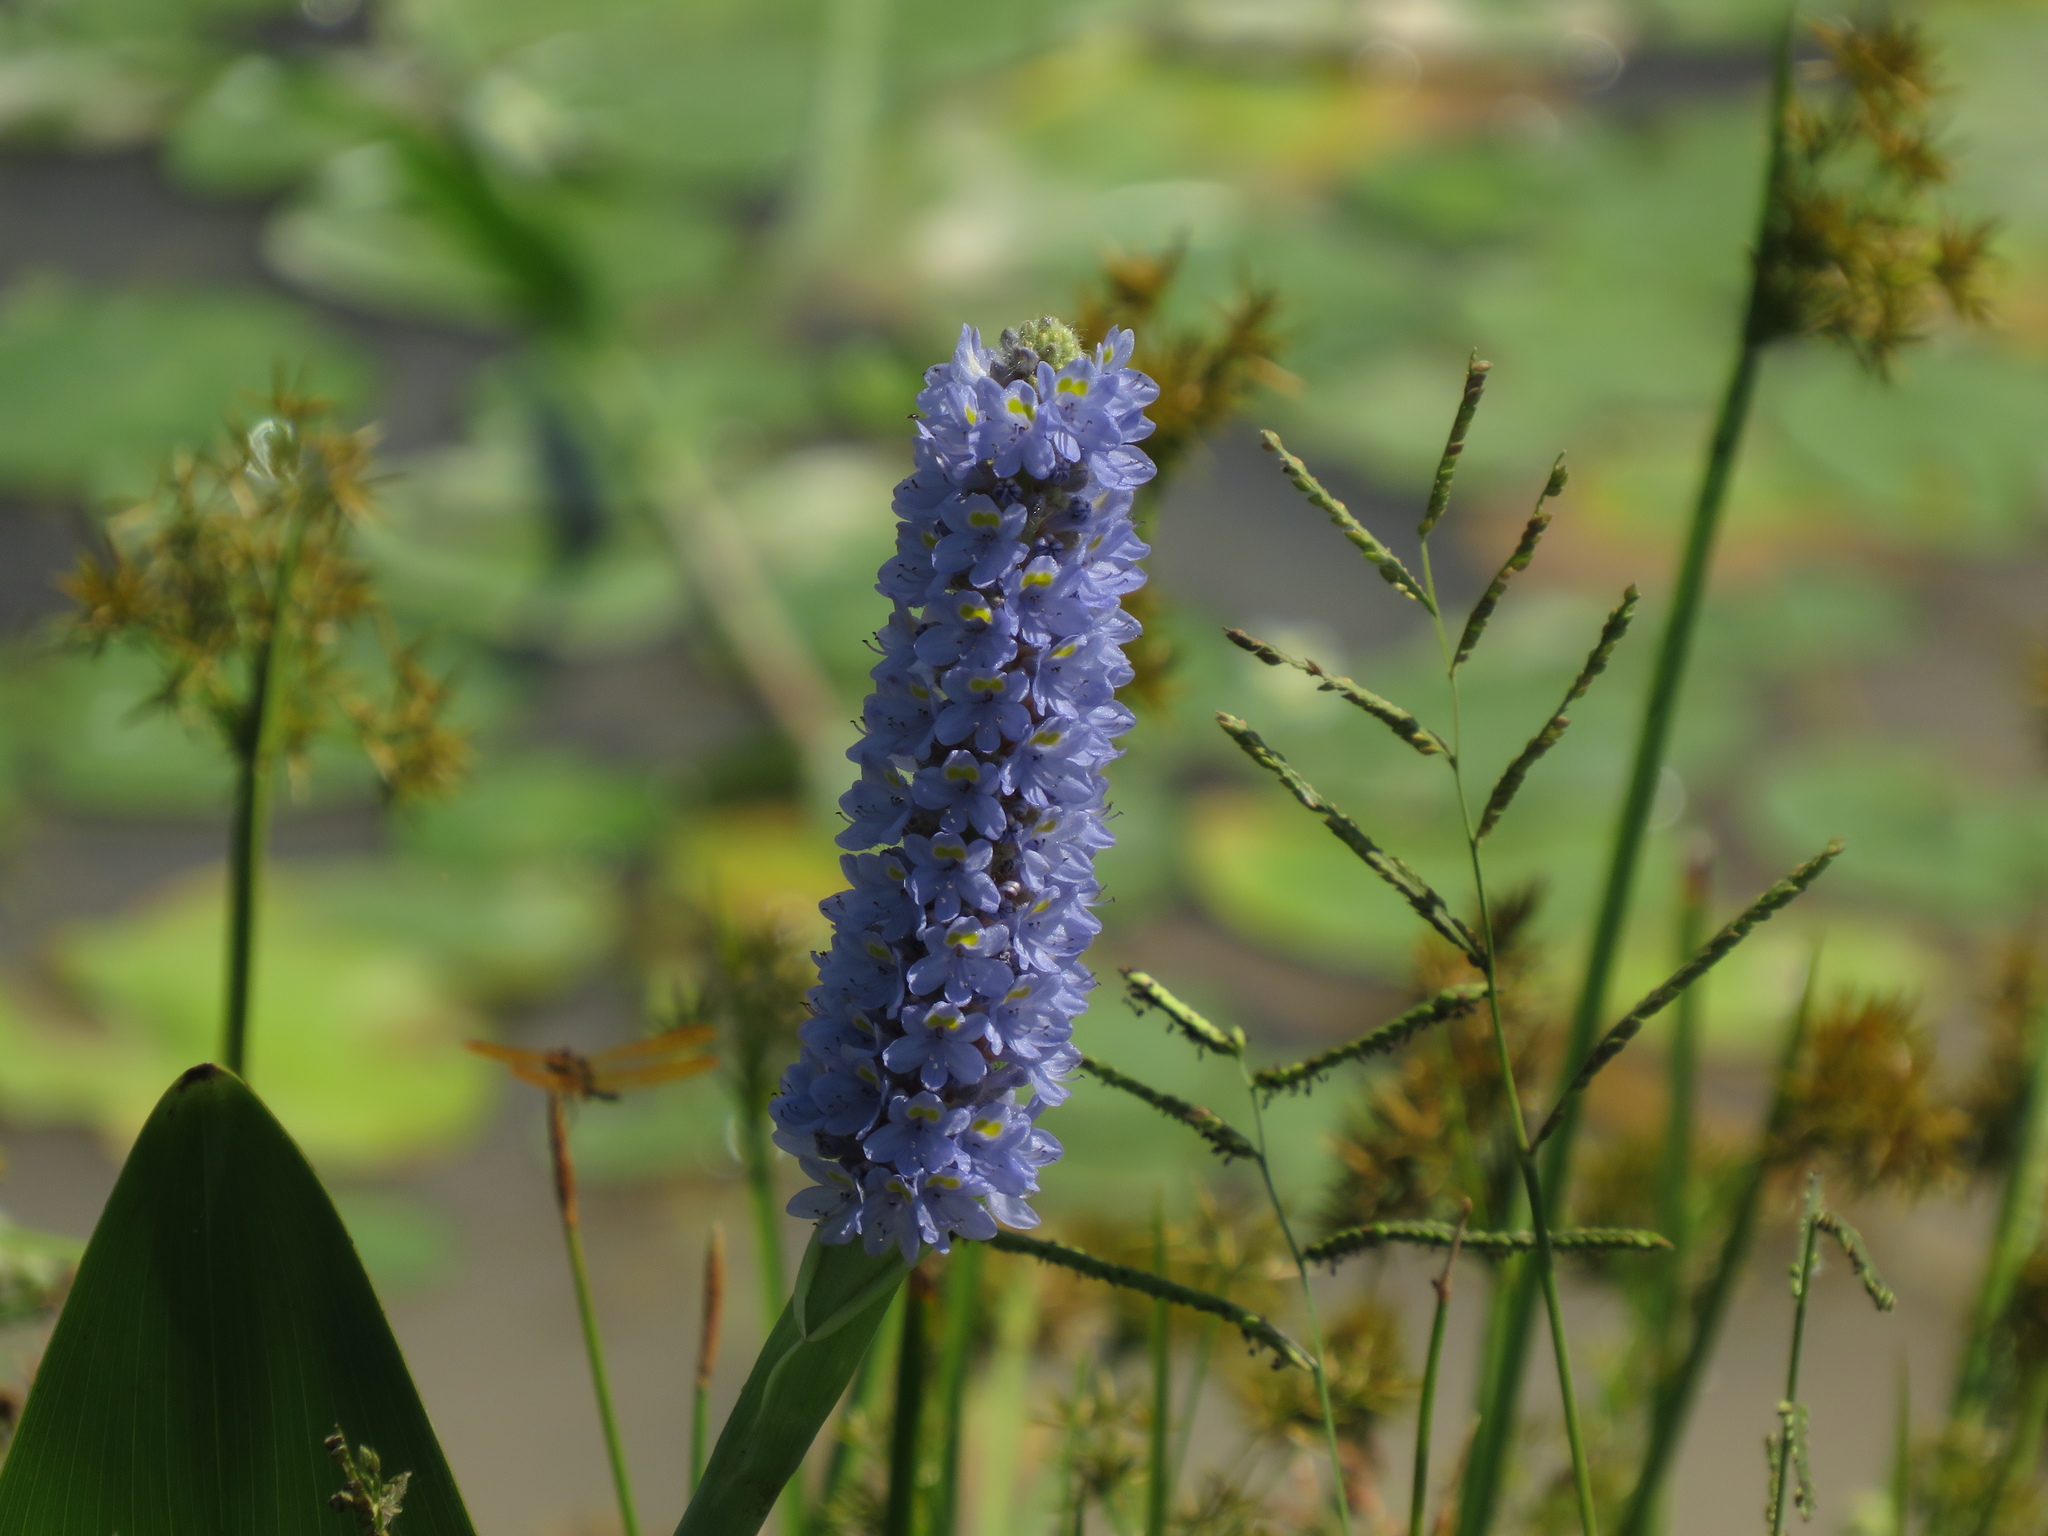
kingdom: Plantae
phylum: Tracheophyta
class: Liliopsida
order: Commelinales
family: Pontederiaceae
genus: Pontederia
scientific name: Pontederia cordata
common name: Pickerelweed
